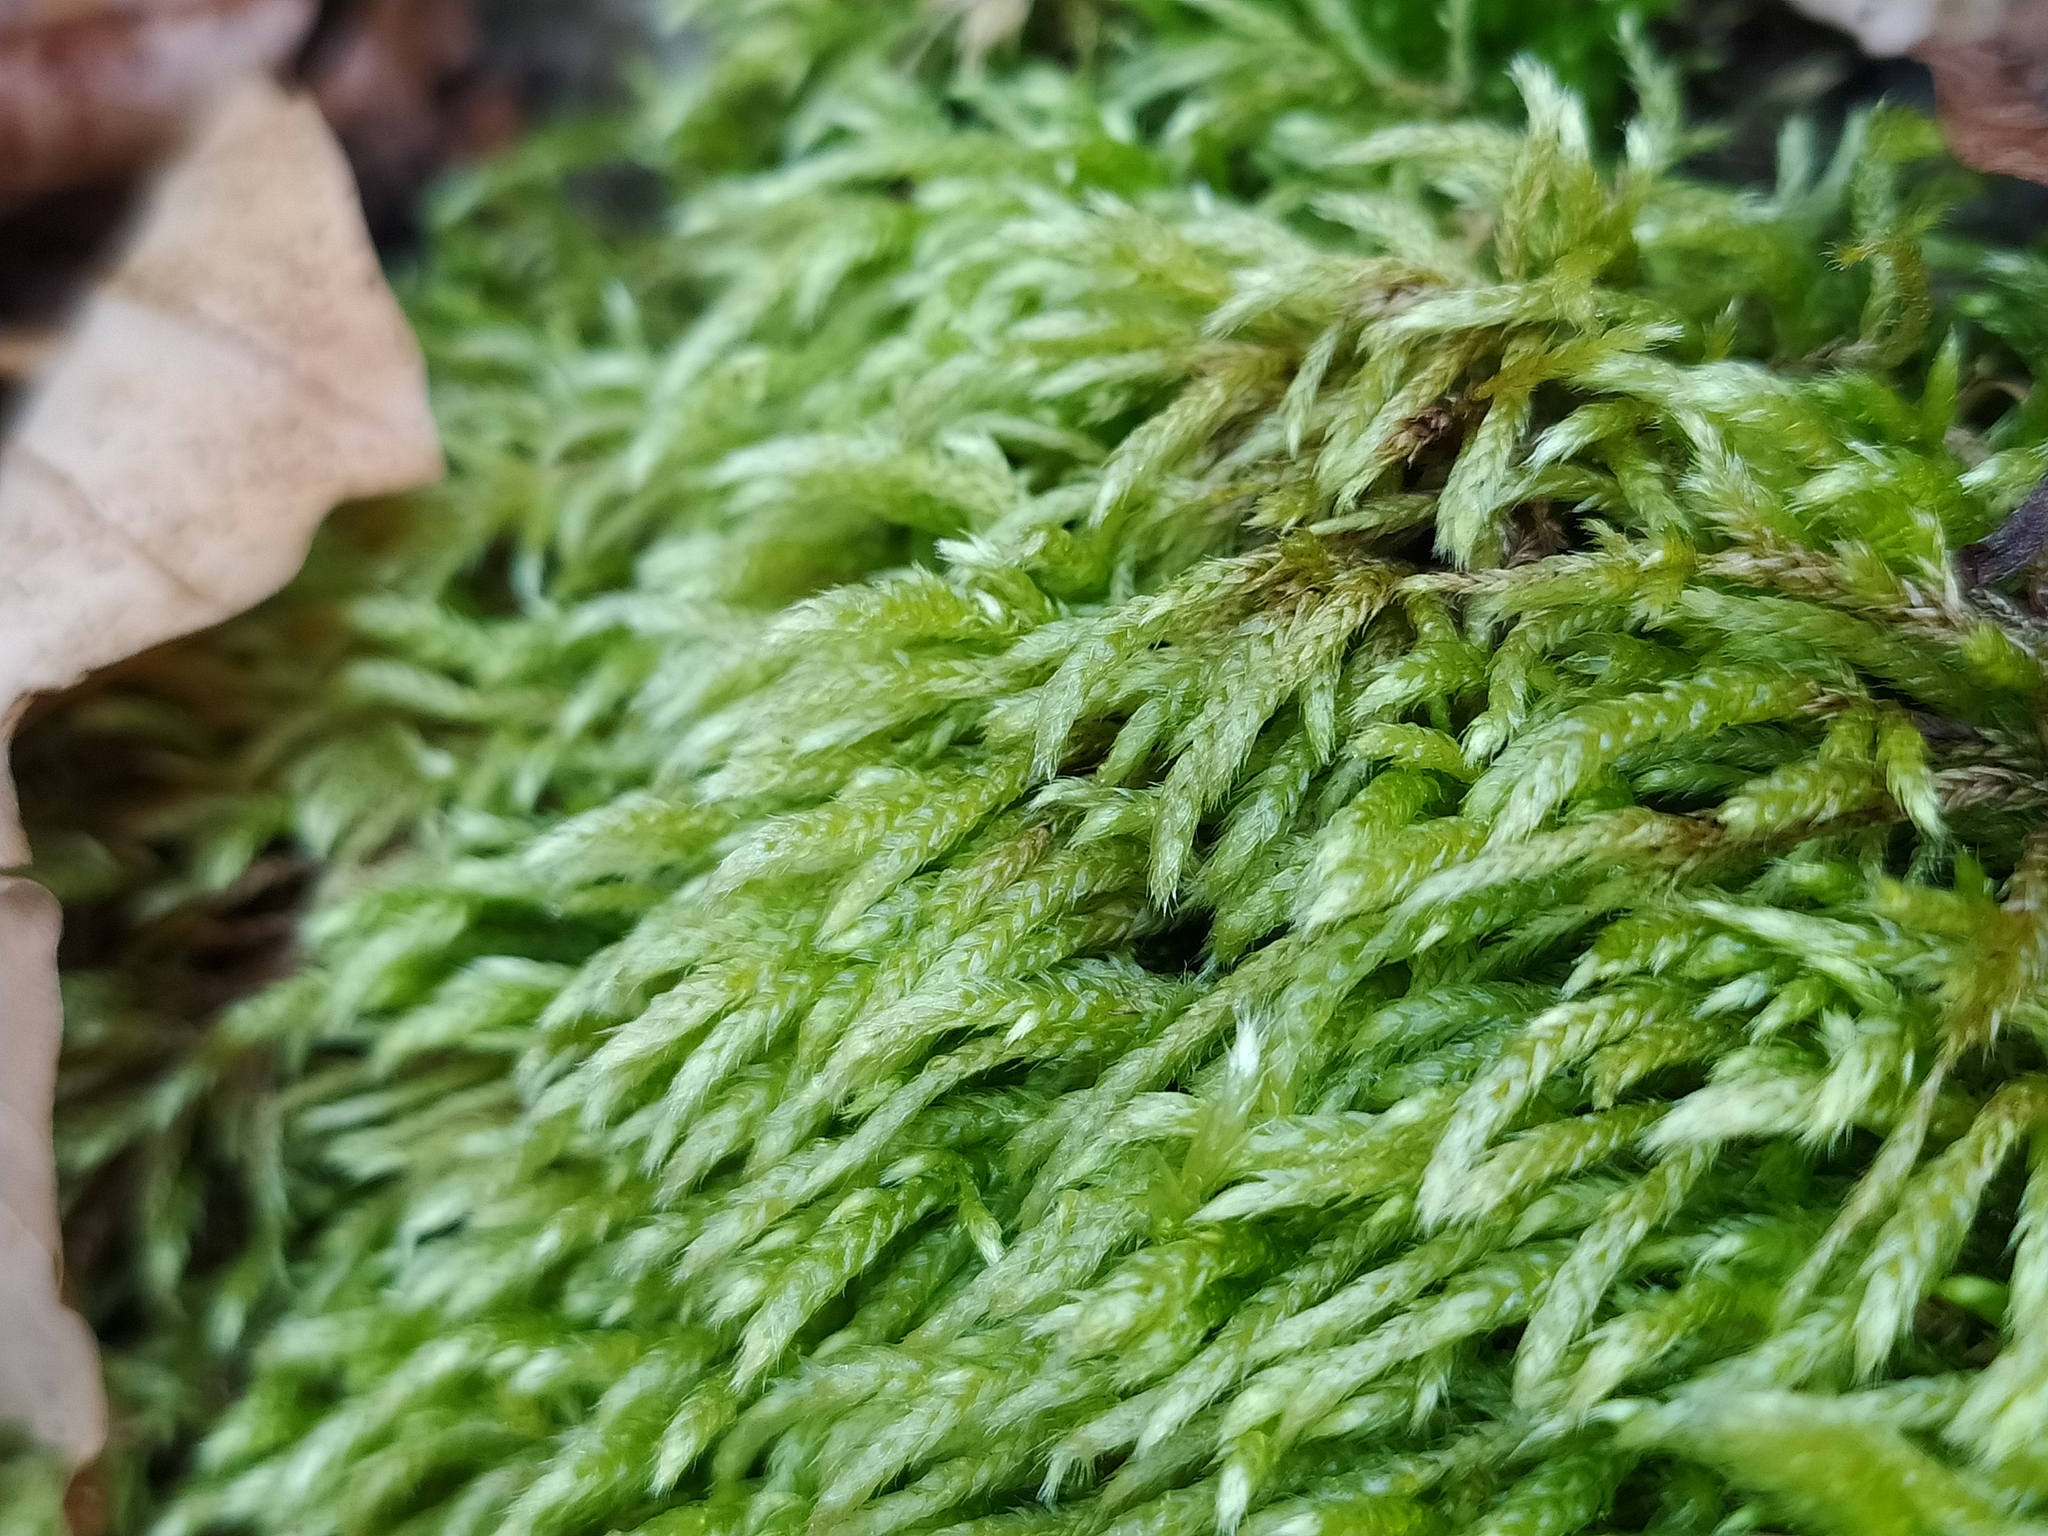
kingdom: Plantae
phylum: Bryophyta
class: Bryopsida
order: Hypnales
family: Lembophyllaceae
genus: Isothecium
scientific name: Isothecium alopecuroides
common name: Larger mouse-tail moss
